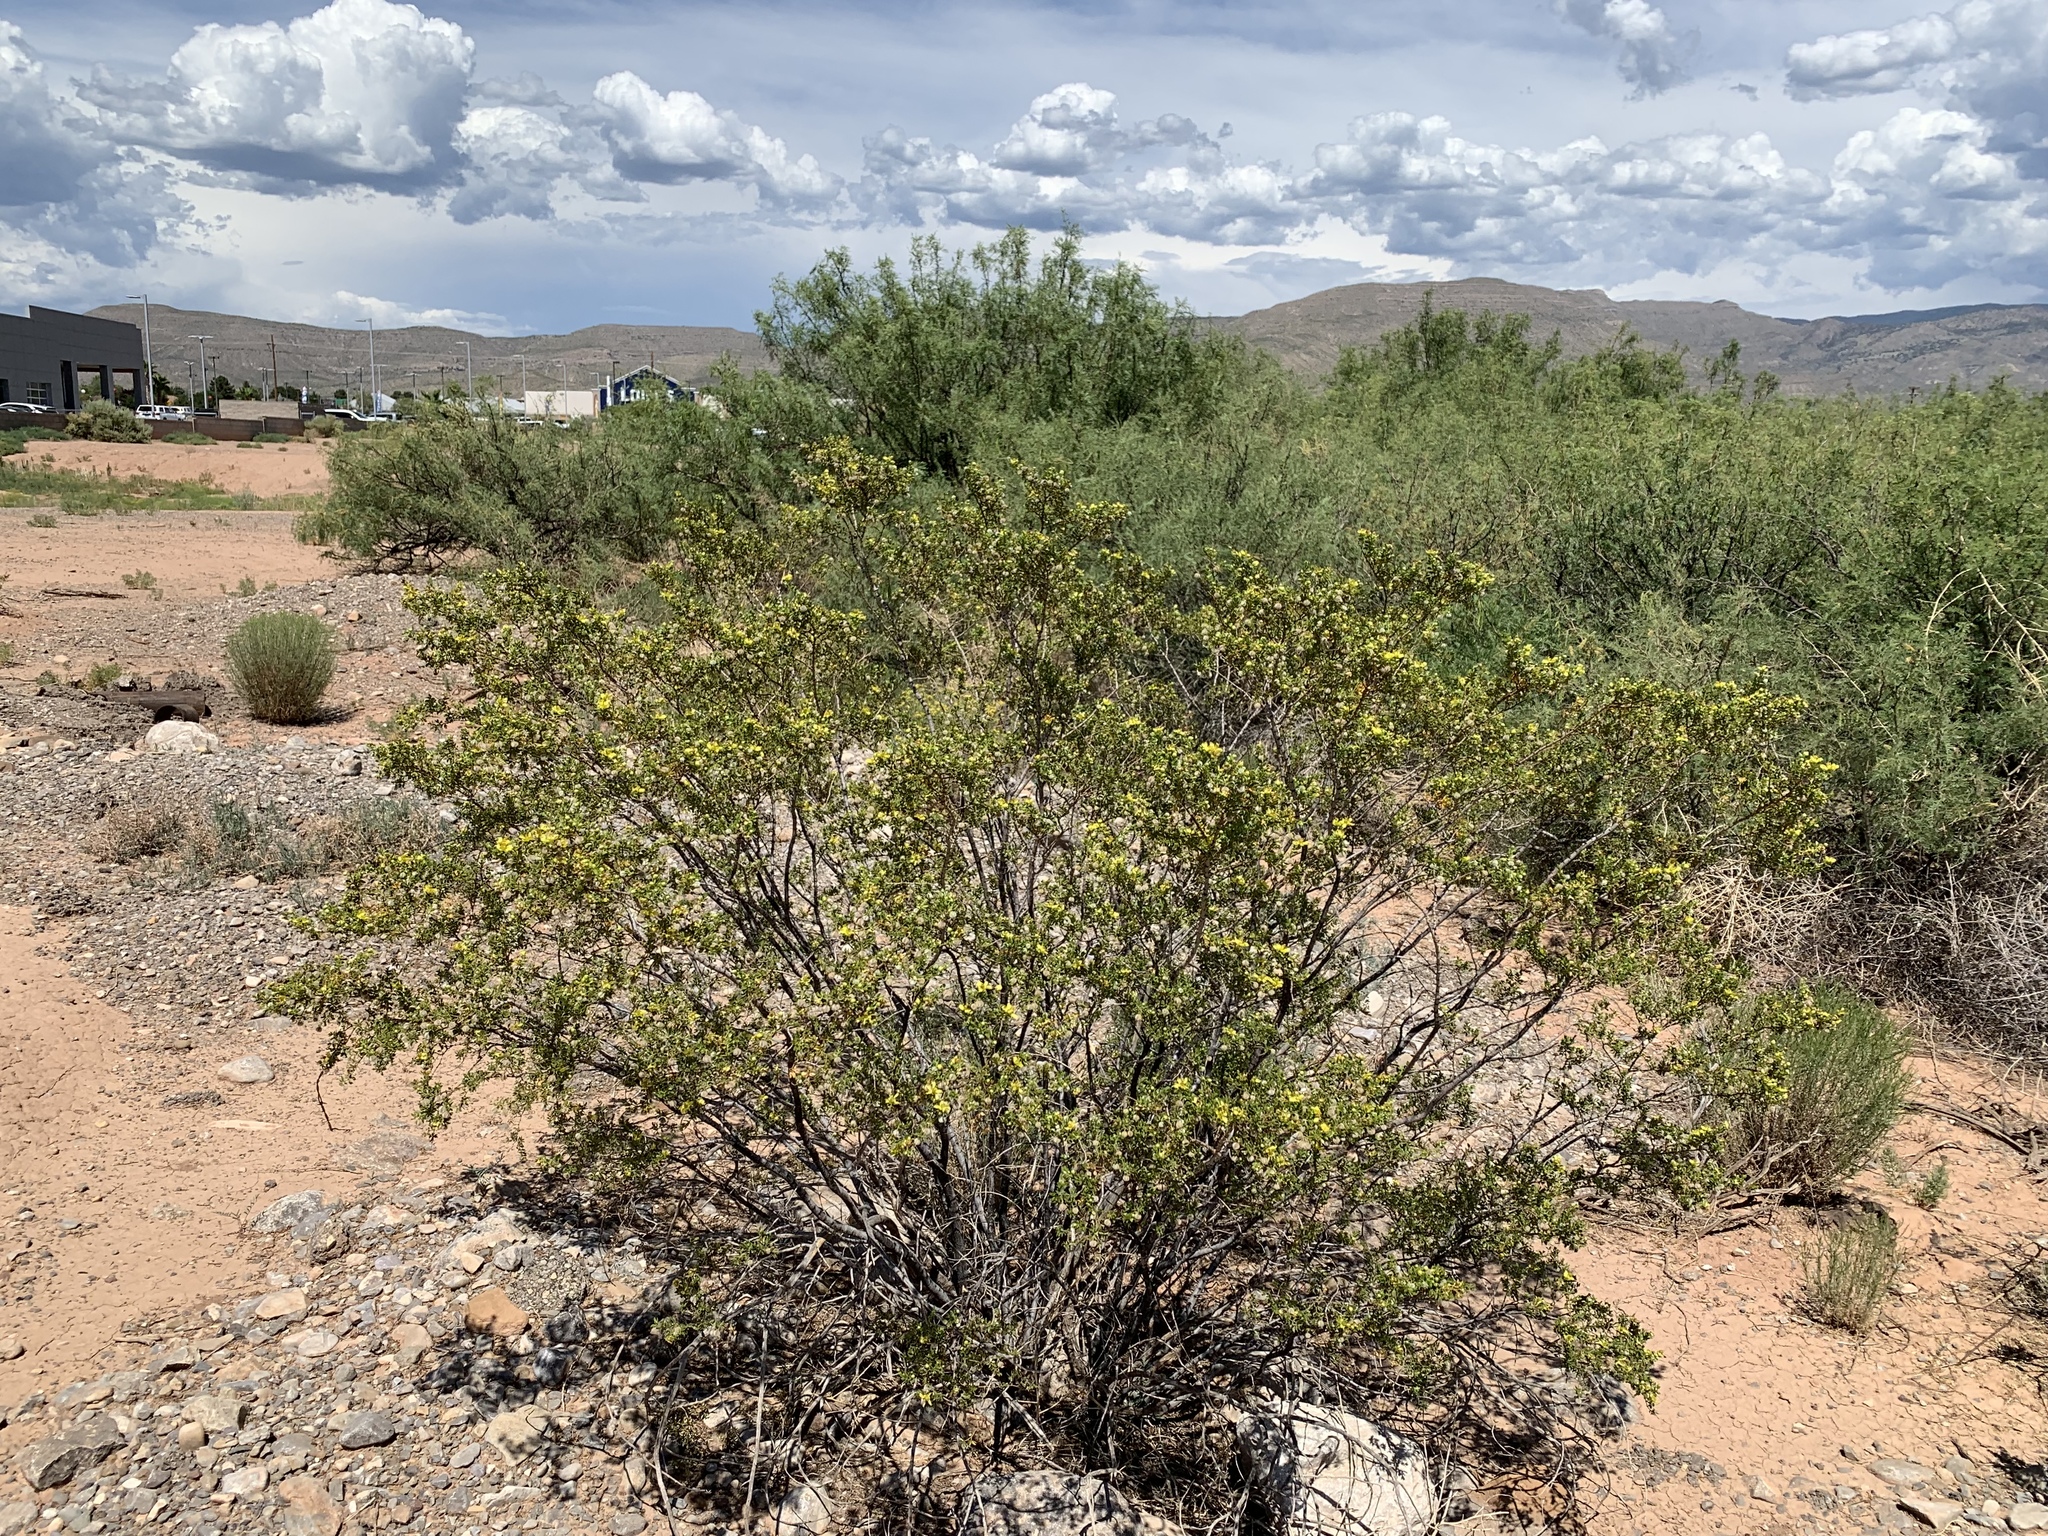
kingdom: Plantae
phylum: Tracheophyta
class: Magnoliopsida
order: Zygophyllales
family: Zygophyllaceae
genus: Larrea
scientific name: Larrea tridentata
